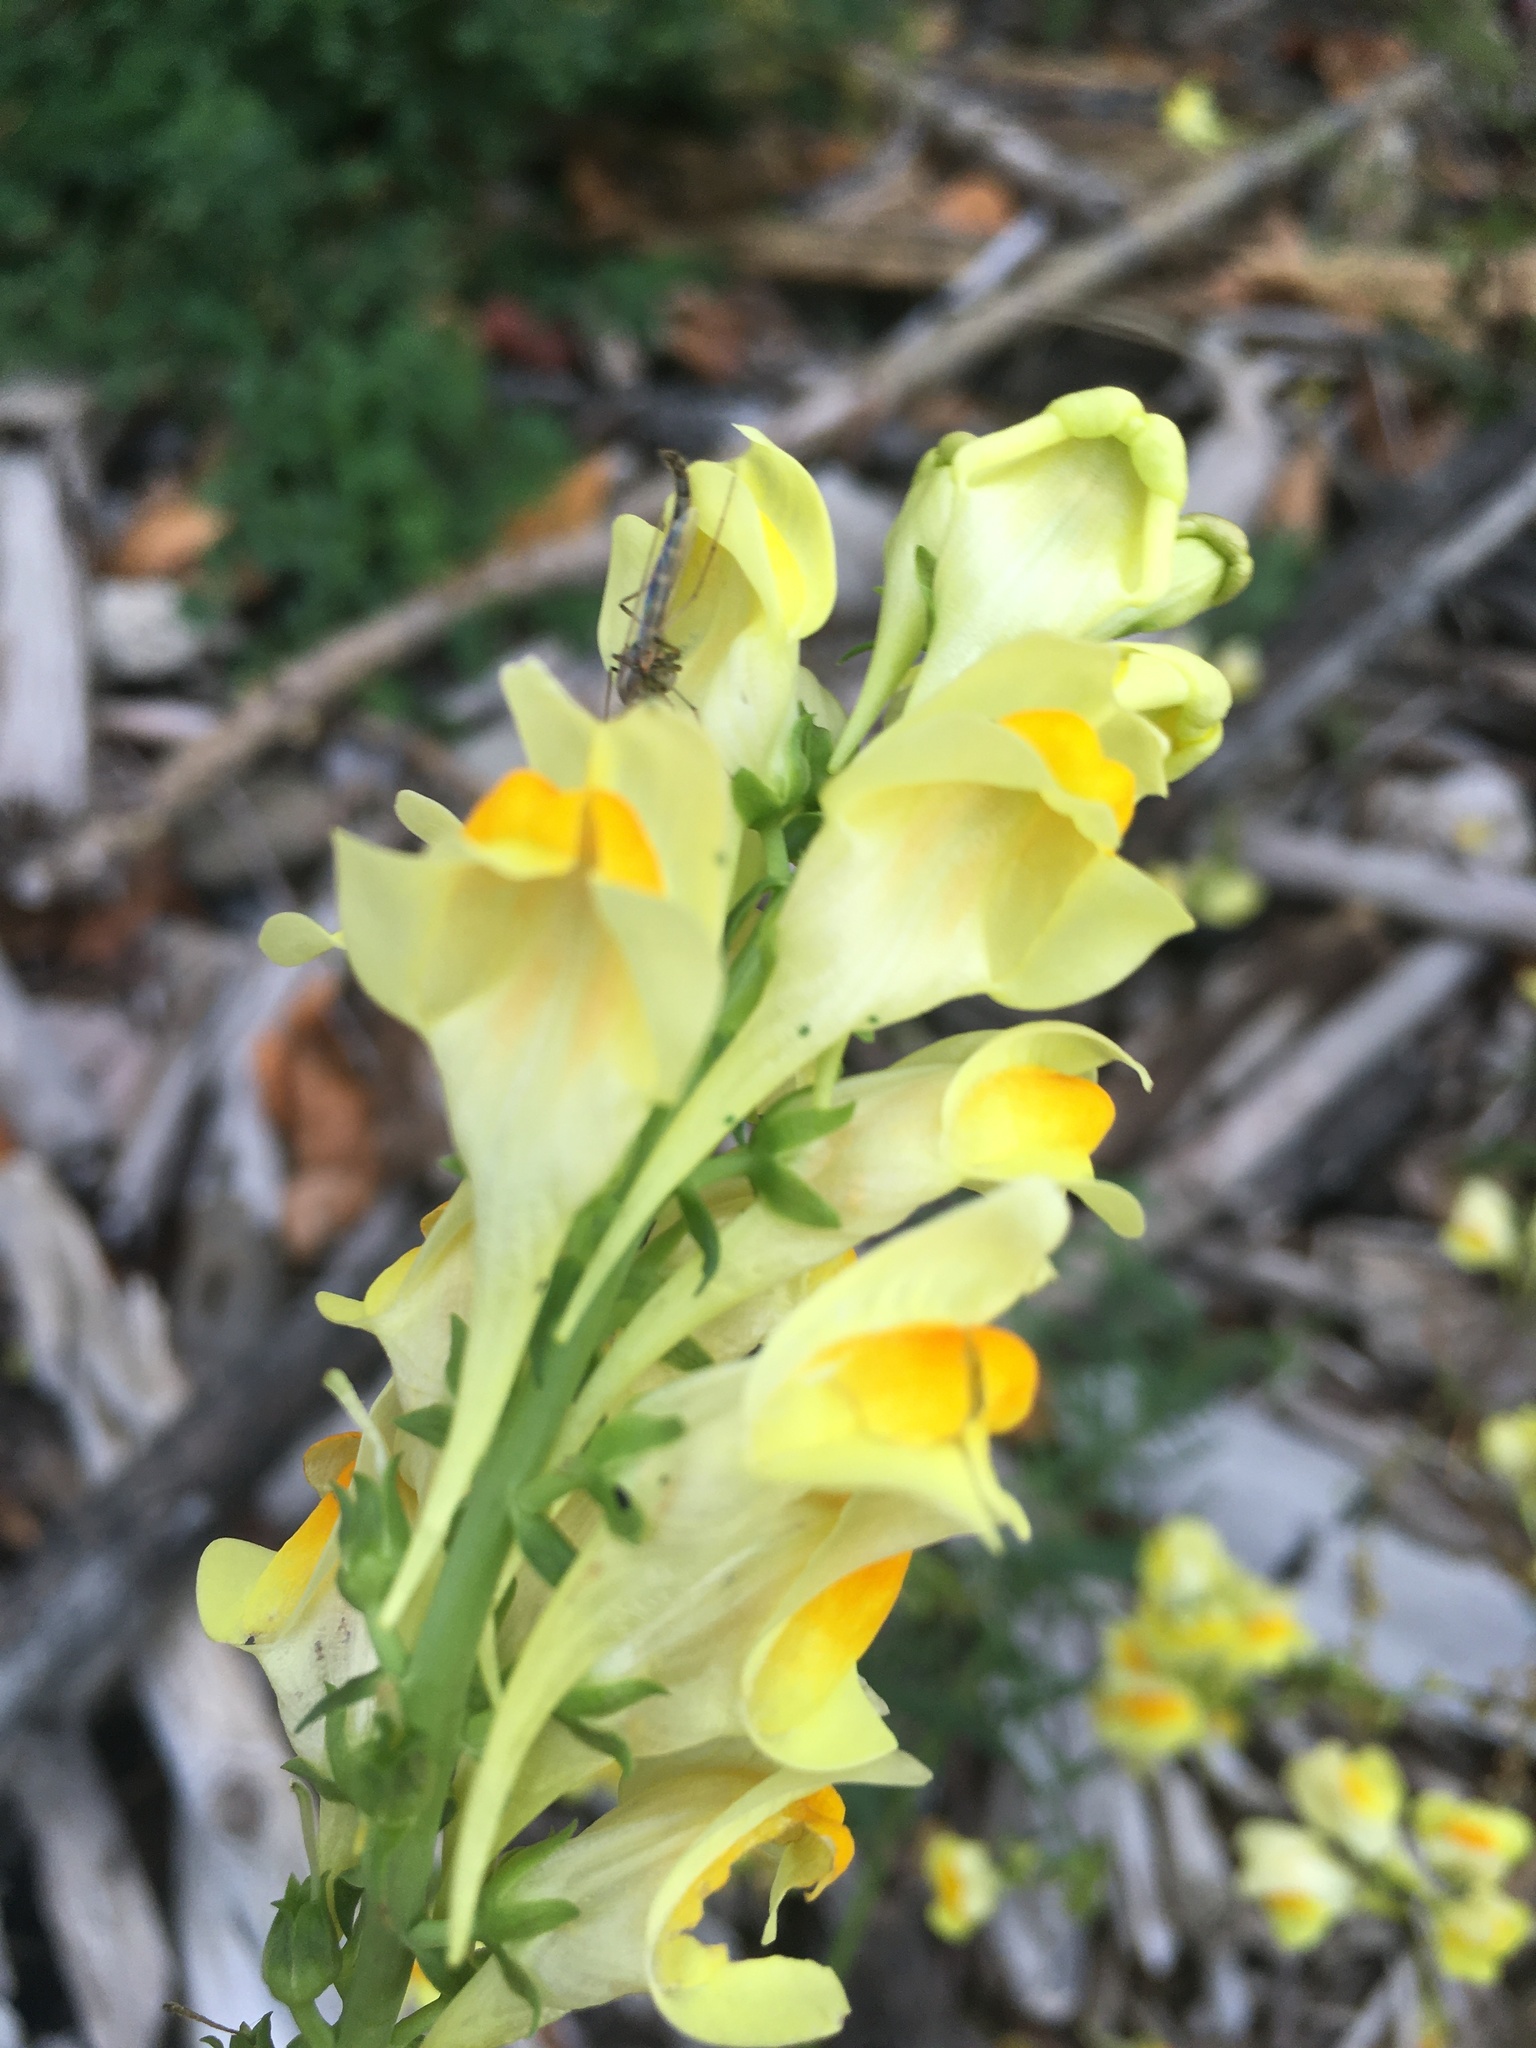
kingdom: Plantae
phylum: Tracheophyta
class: Magnoliopsida
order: Lamiales
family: Plantaginaceae
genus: Linaria
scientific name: Linaria vulgaris
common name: Butter and eggs
